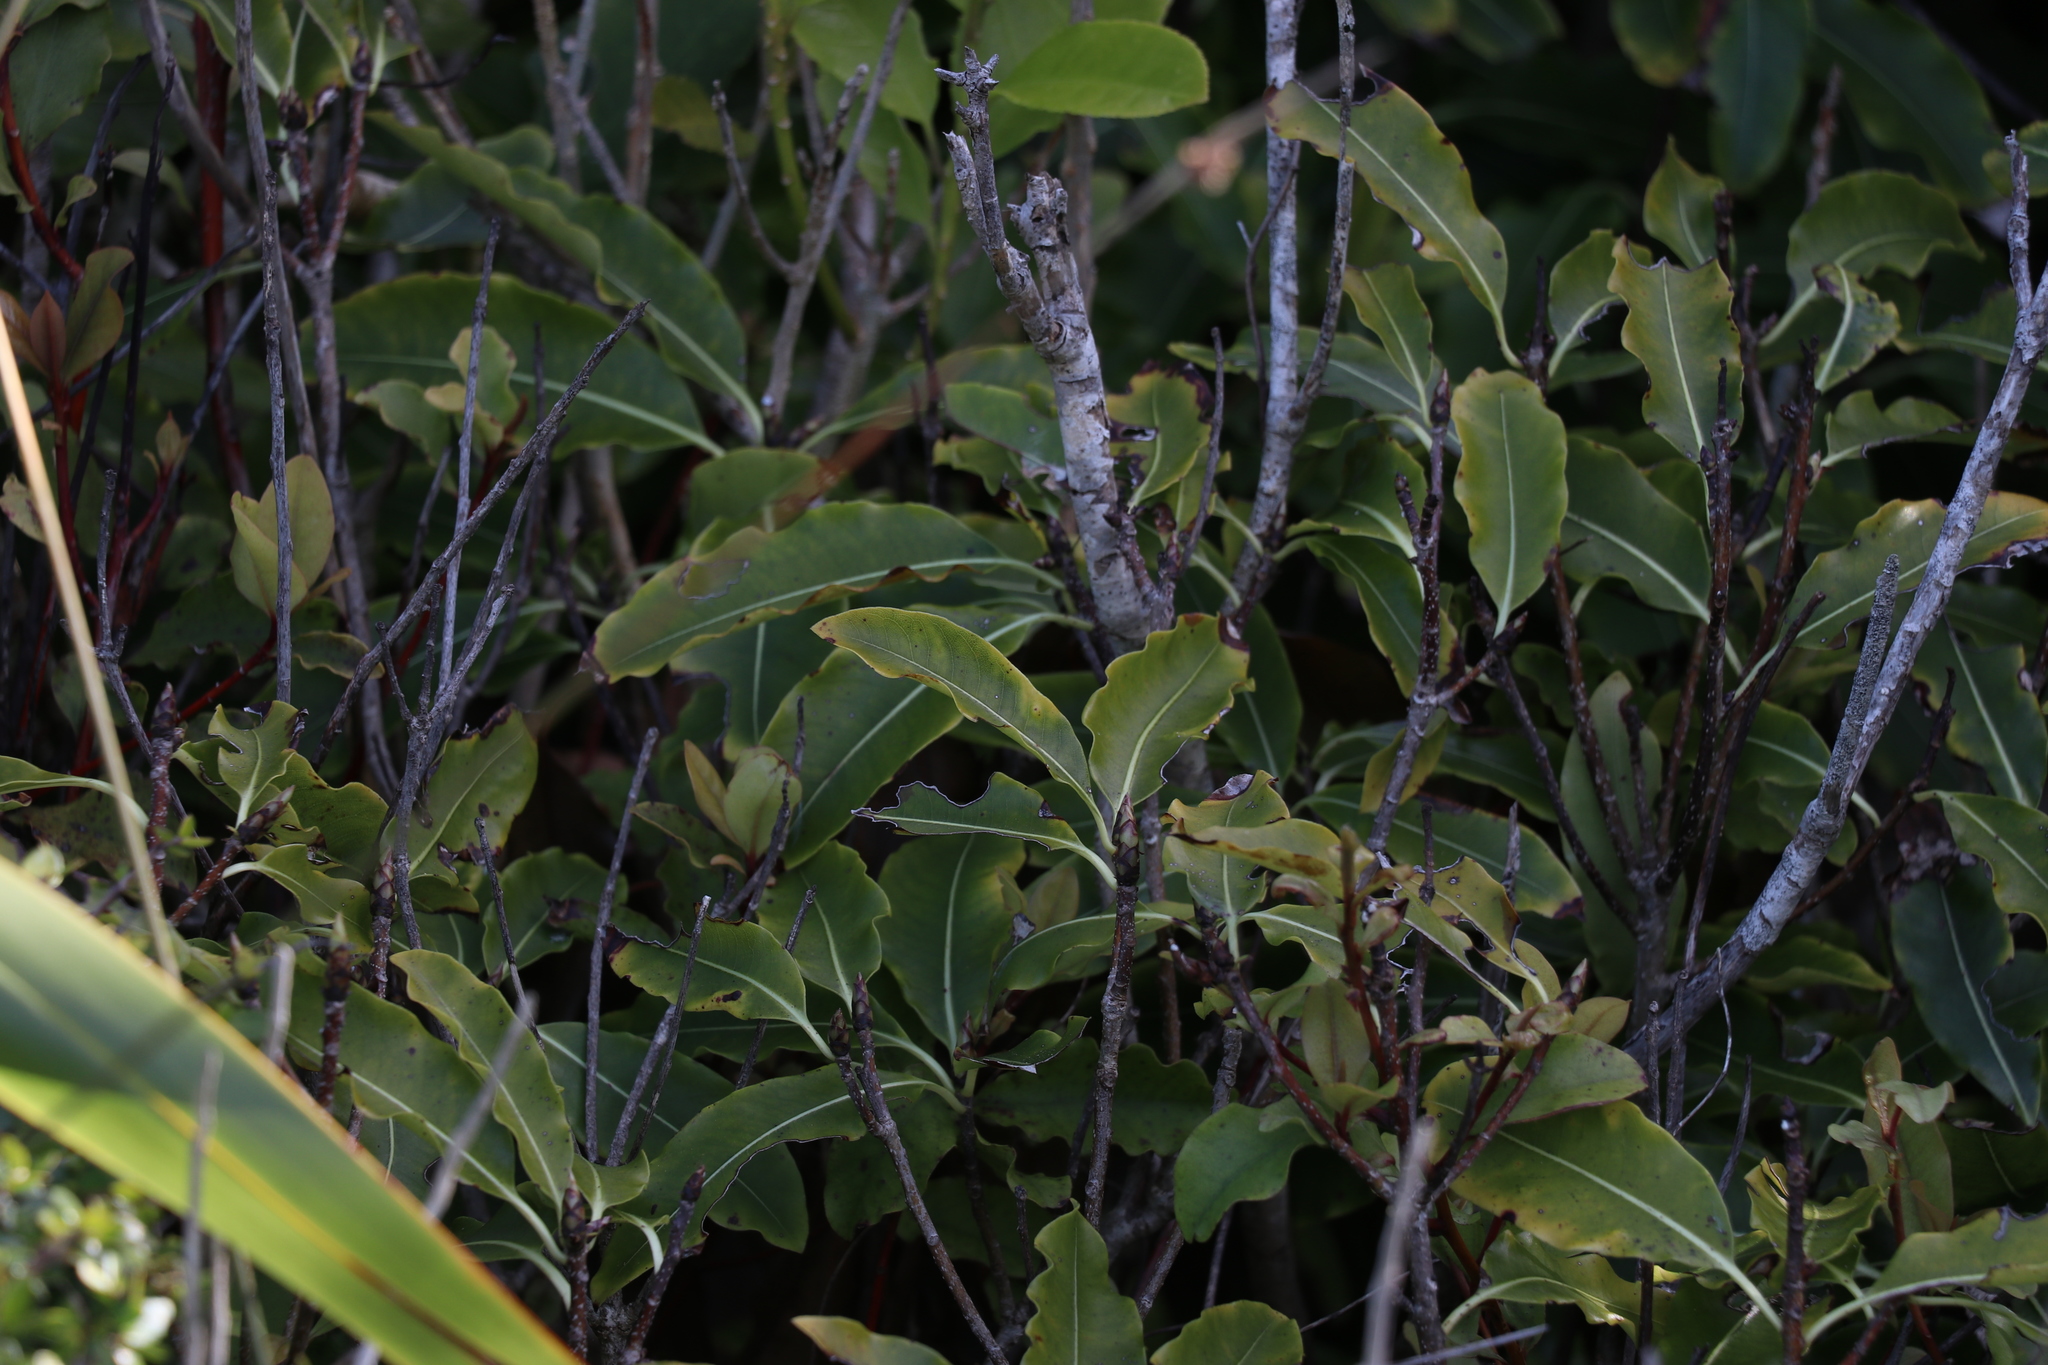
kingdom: Plantae
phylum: Tracheophyta
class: Magnoliopsida
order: Apiales
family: Pittosporaceae
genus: Pittosporum
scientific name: Pittosporum eugenioides
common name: Lemonwood
